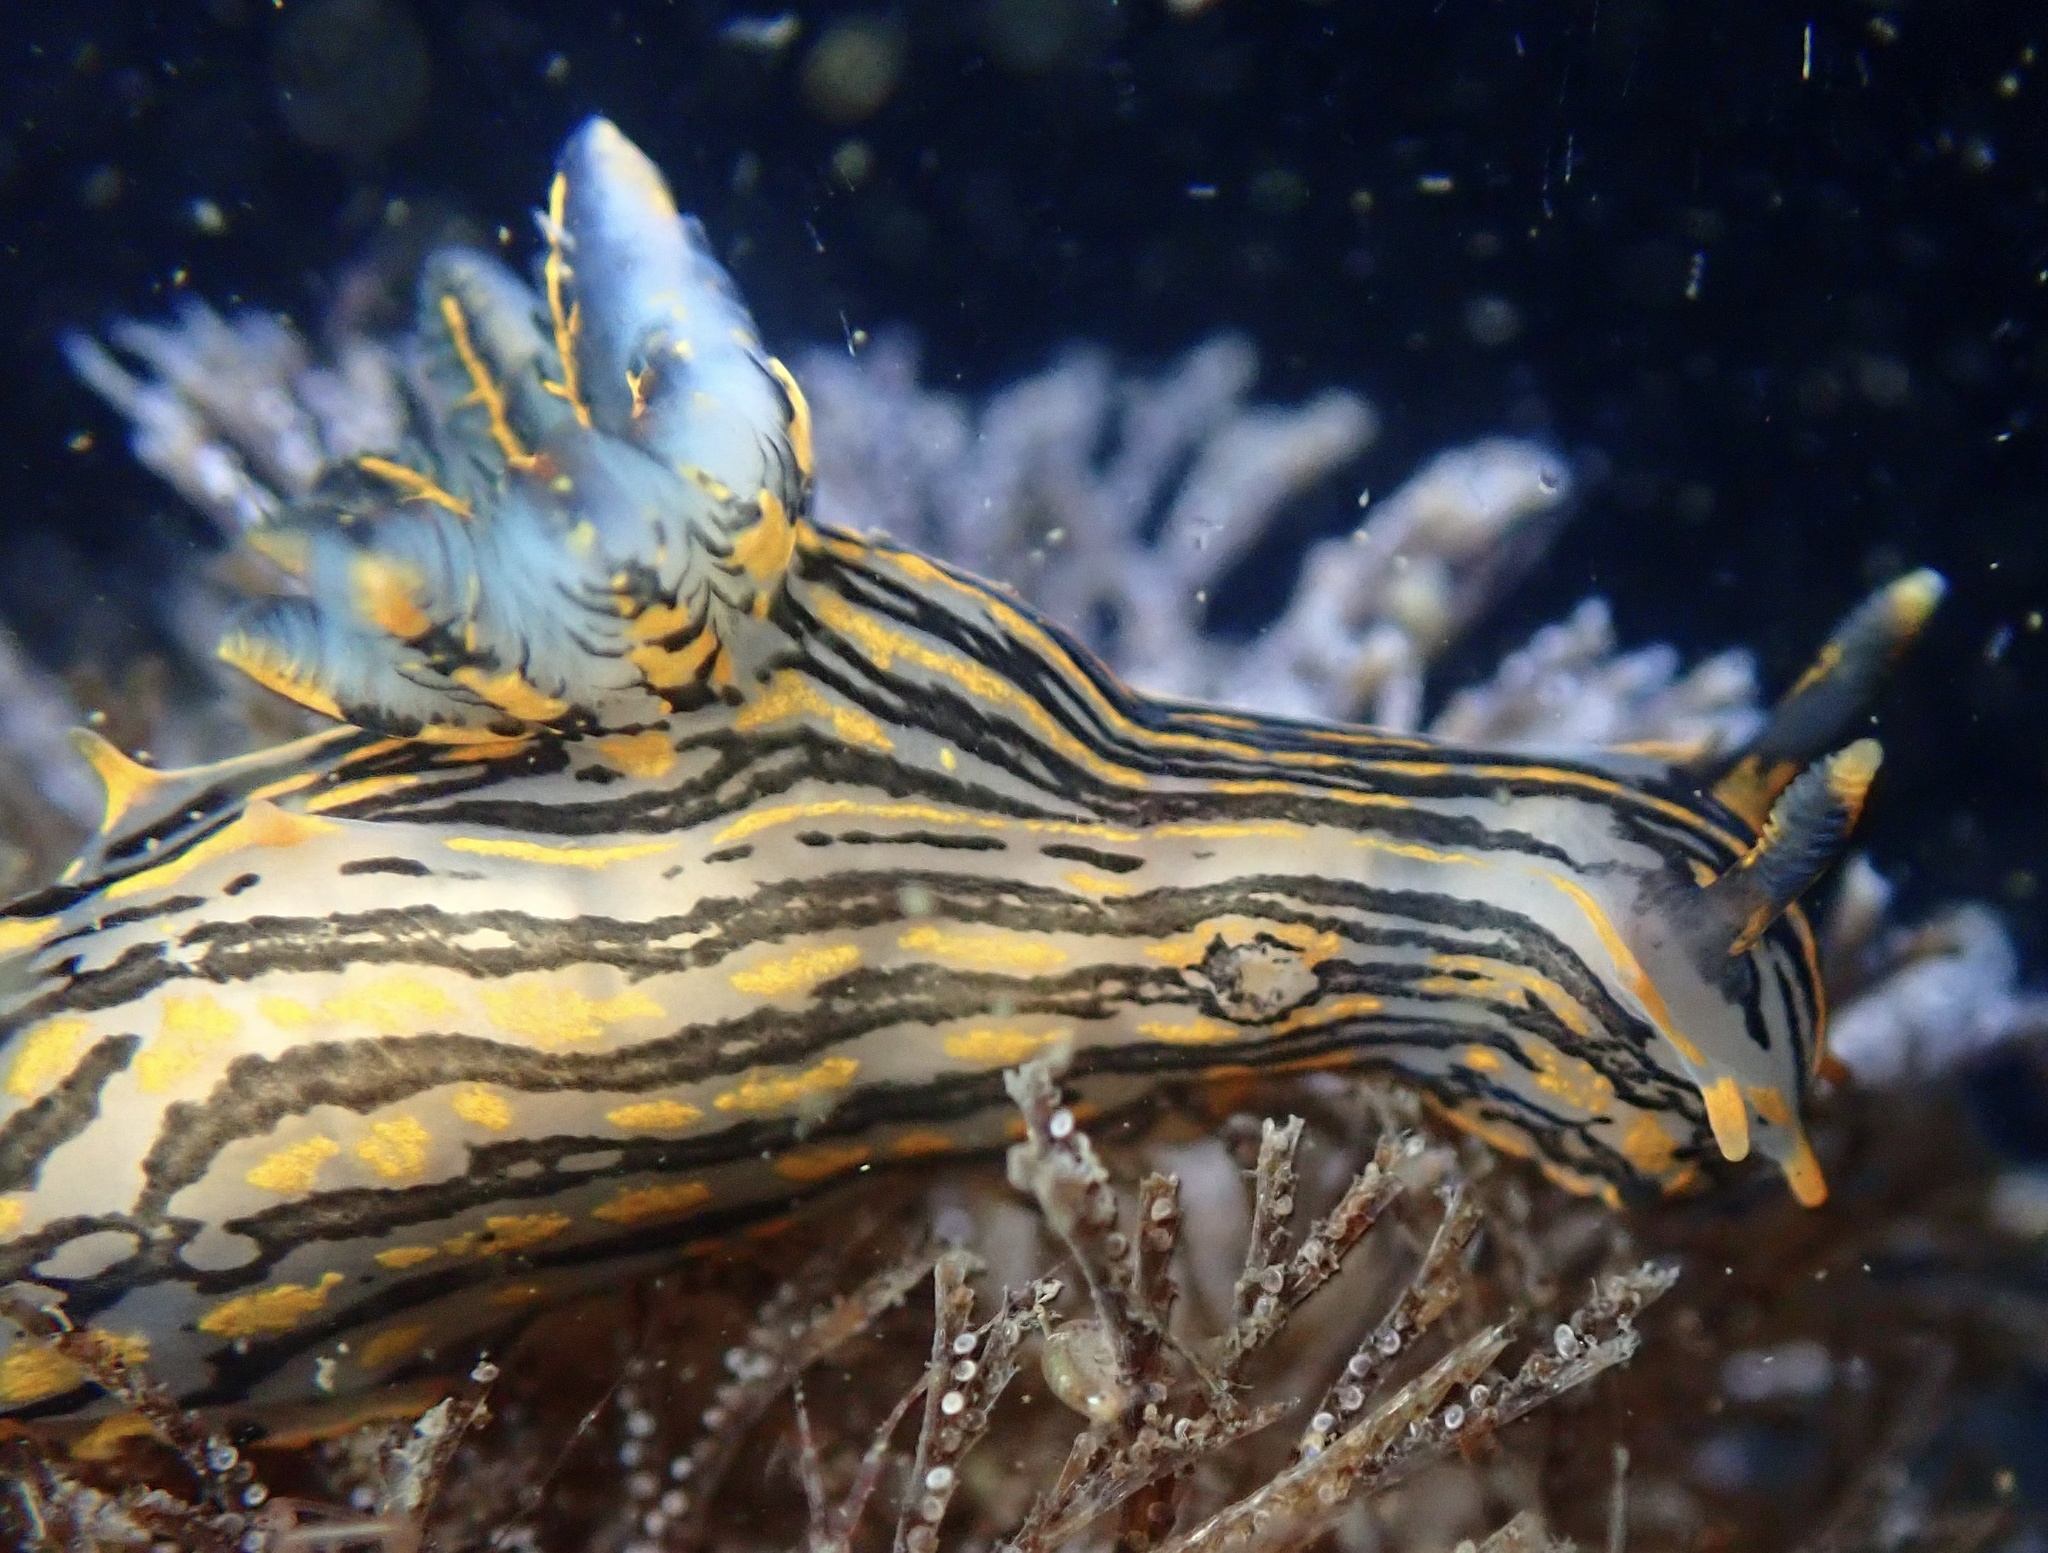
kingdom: Animalia
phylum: Mollusca
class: Gastropoda
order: Nudibranchia
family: Polyceridae
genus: Polycera
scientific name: Polycera atra
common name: Orange-spike polycera
